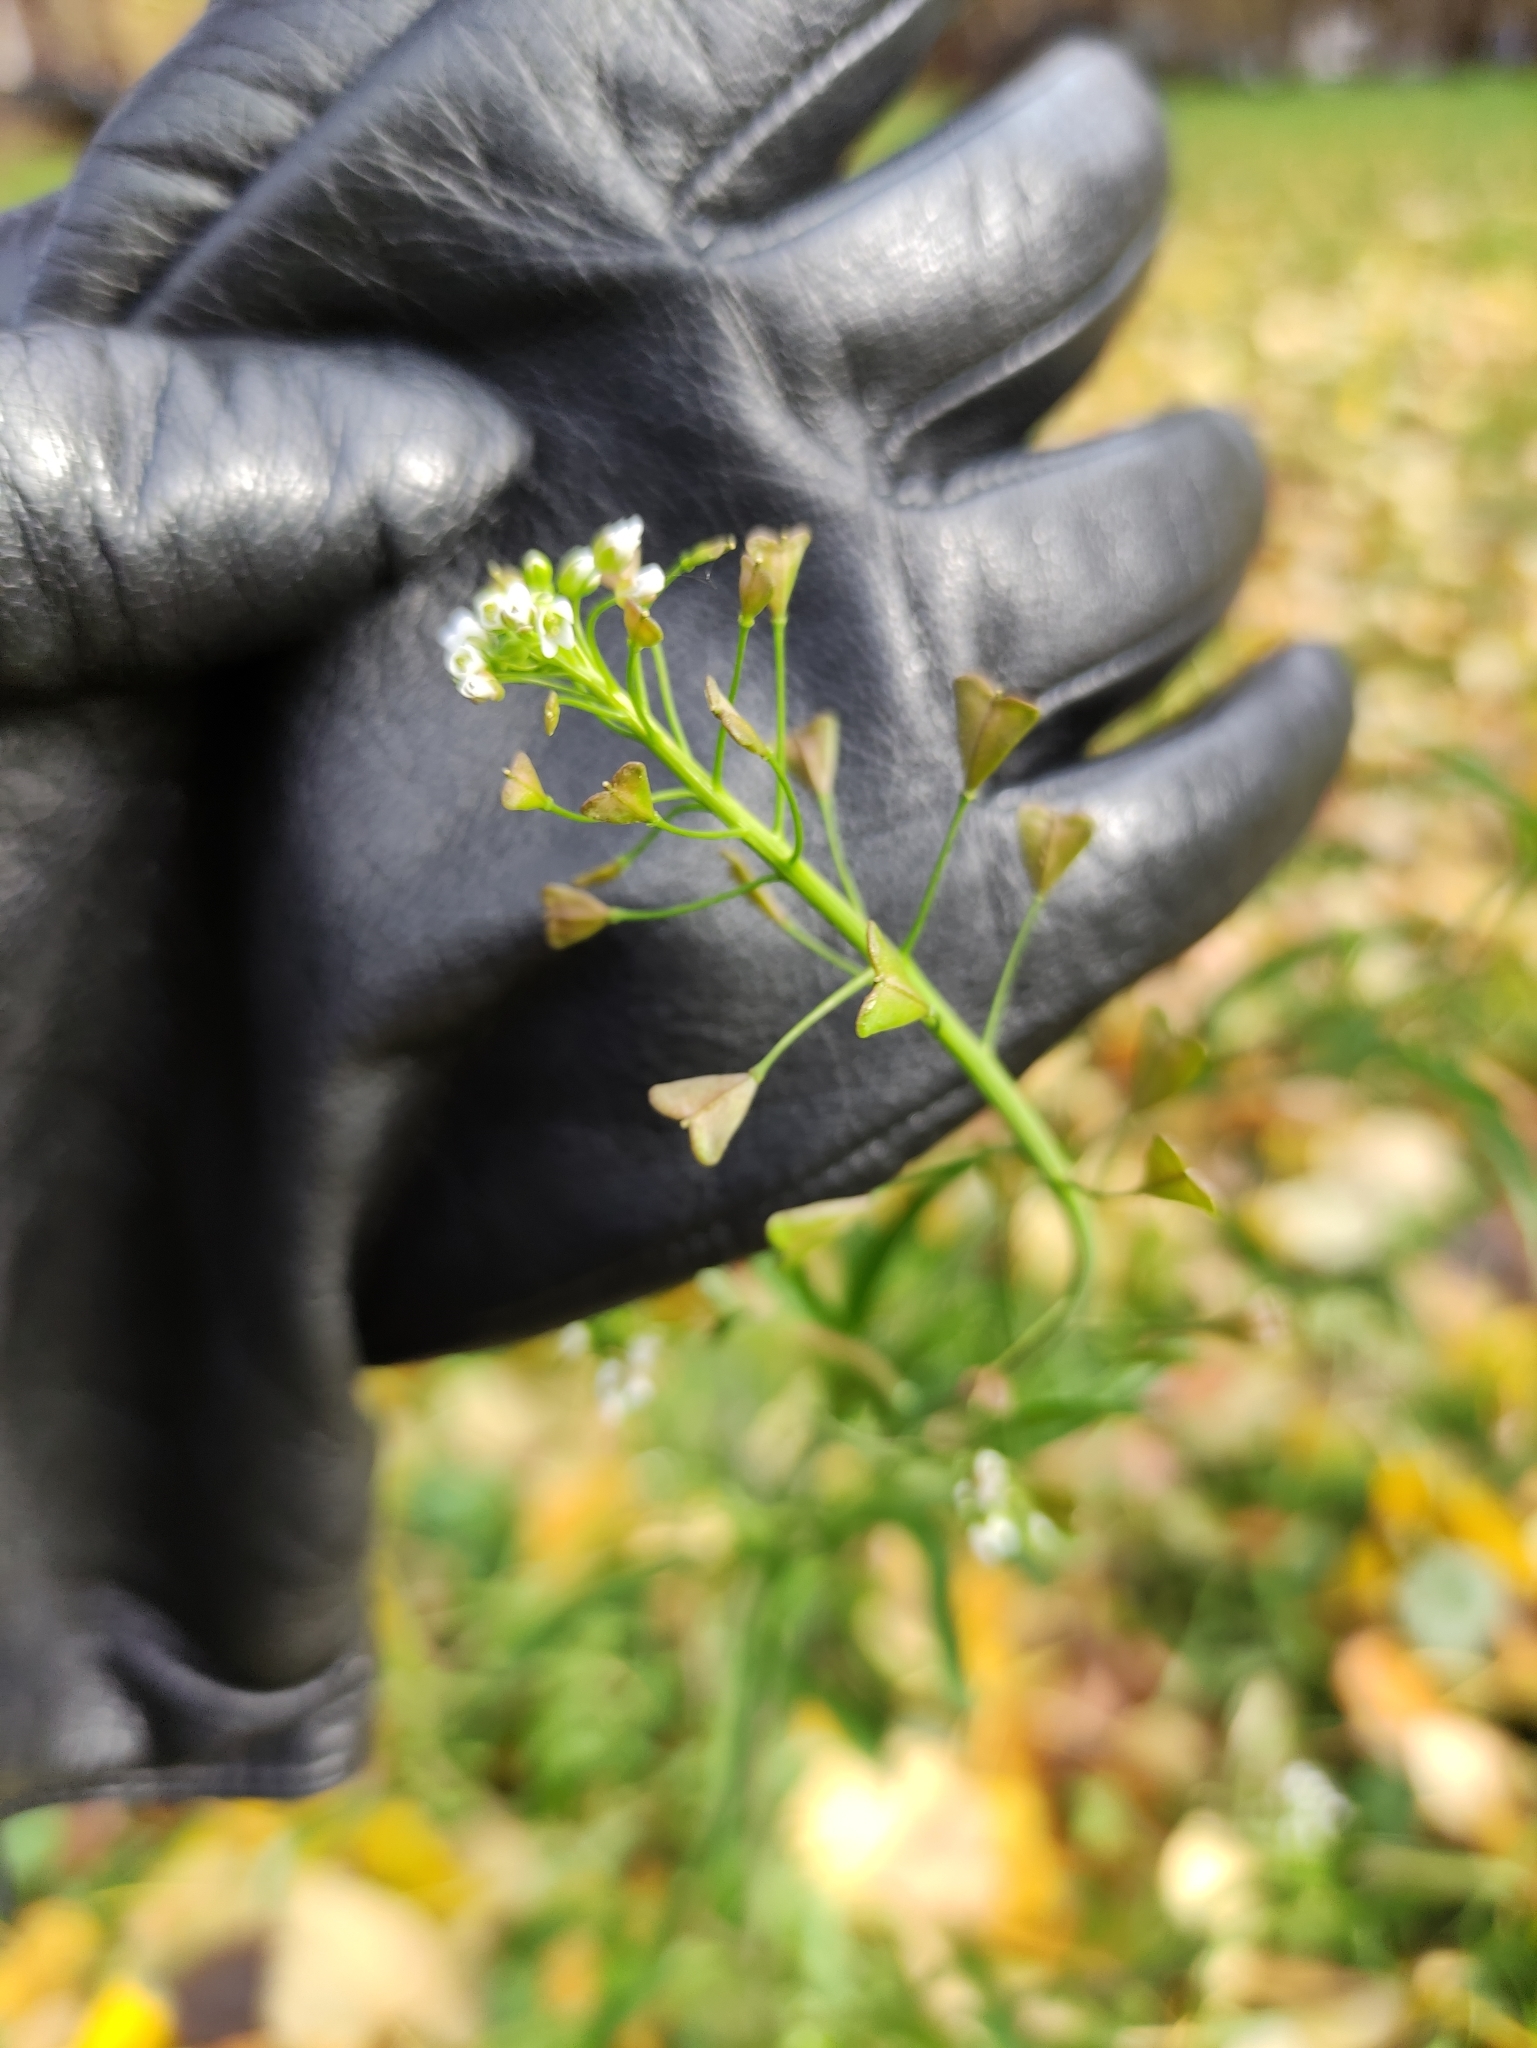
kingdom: Plantae
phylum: Tracheophyta
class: Magnoliopsida
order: Brassicales
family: Brassicaceae
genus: Capsella
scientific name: Capsella bursa-pastoris
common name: Shepherd's purse
